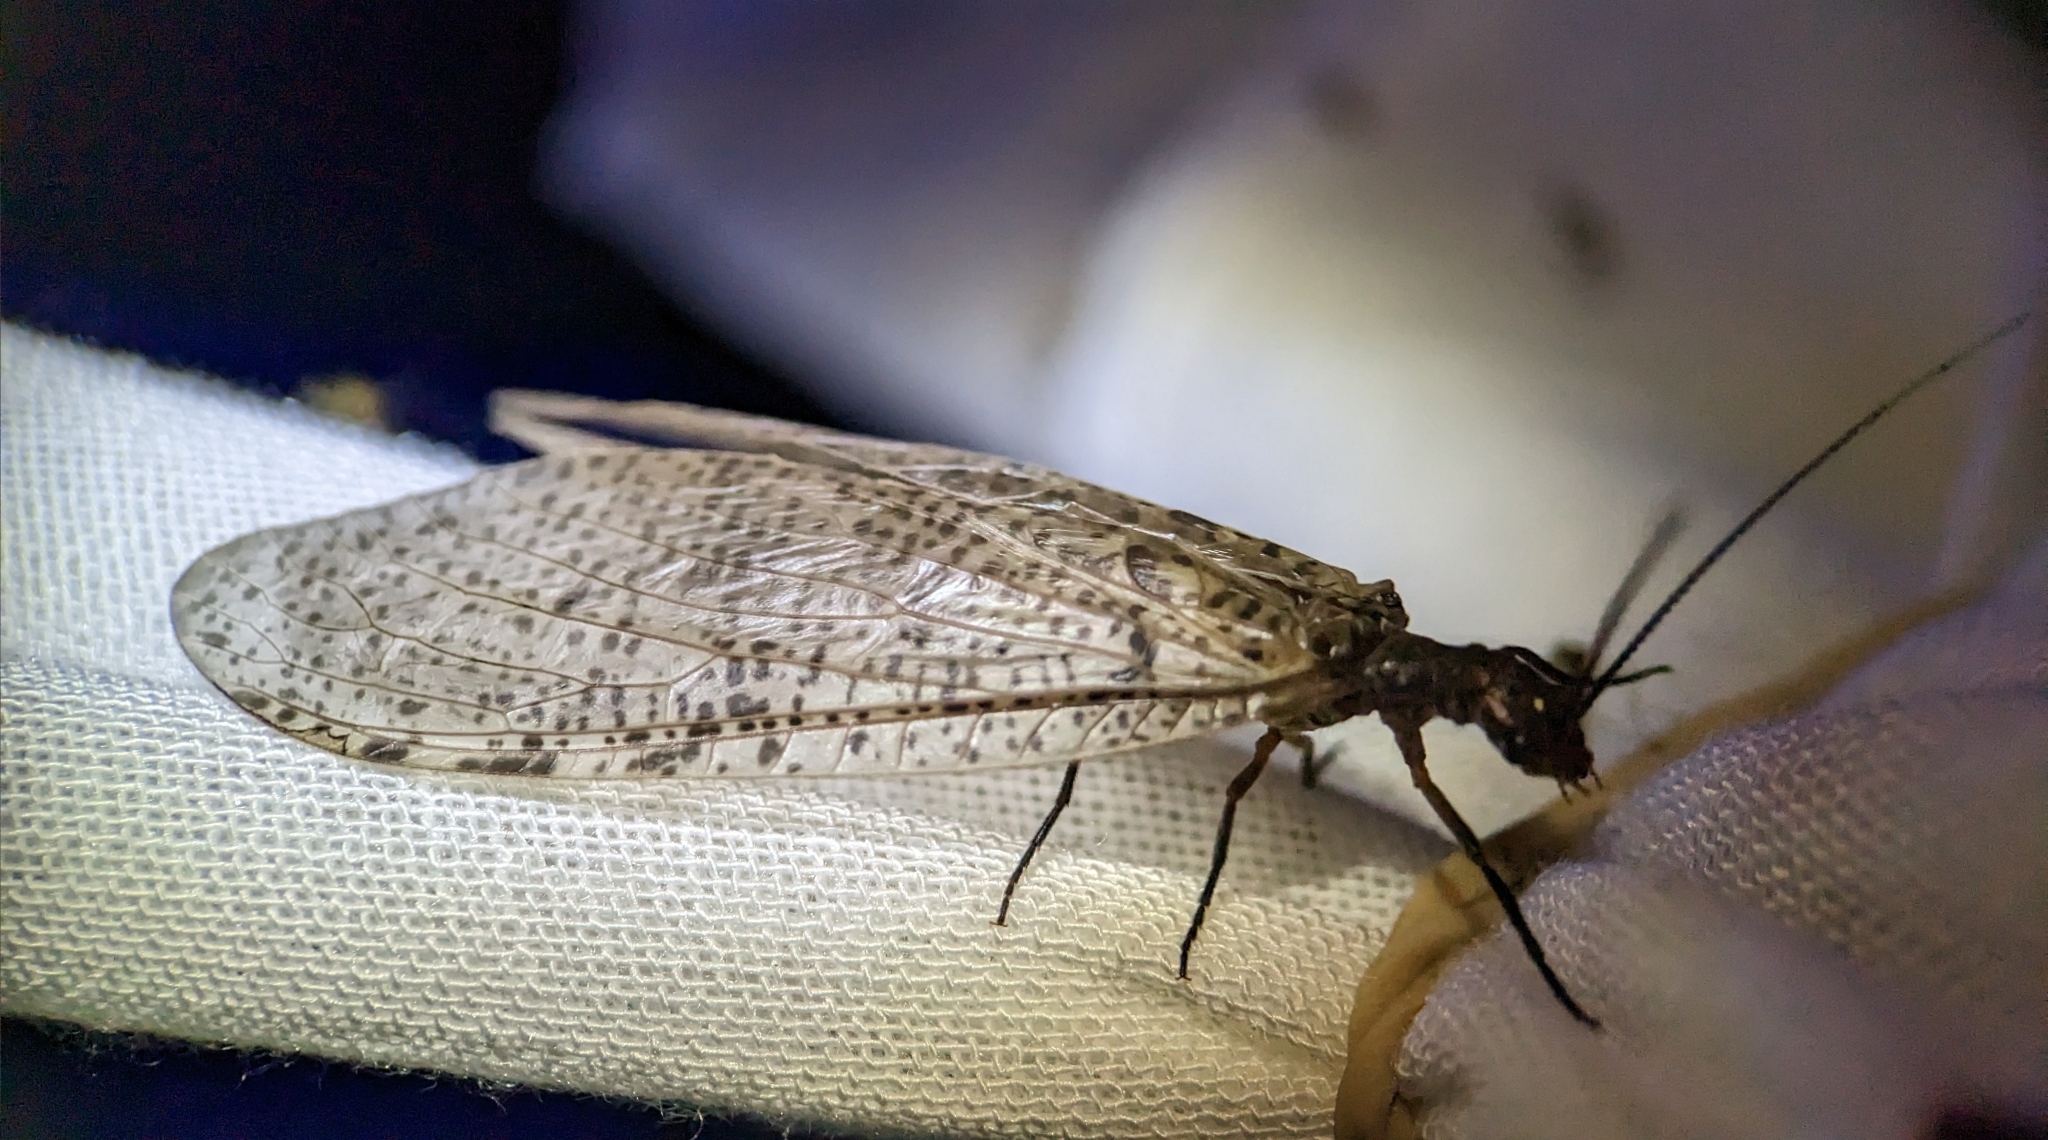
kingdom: Animalia
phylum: Arthropoda
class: Insecta
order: Megaloptera
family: Corydalidae
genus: Neohermes
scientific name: Neohermes concolor
